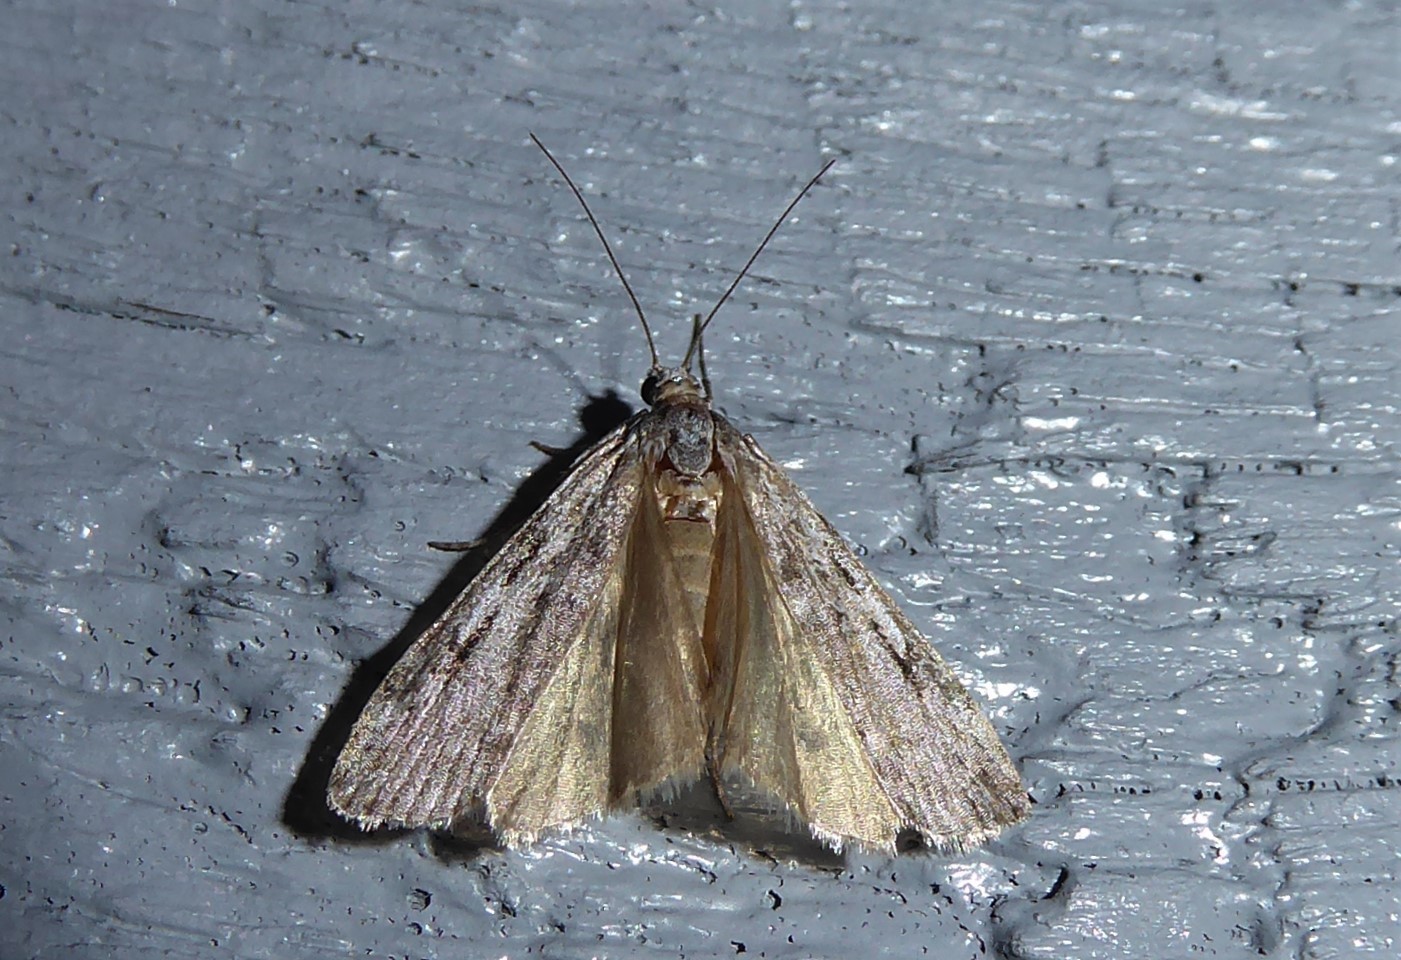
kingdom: Animalia
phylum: Arthropoda
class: Insecta
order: Lepidoptera
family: Crambidae
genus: Scoparia
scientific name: Scoparia halopis
